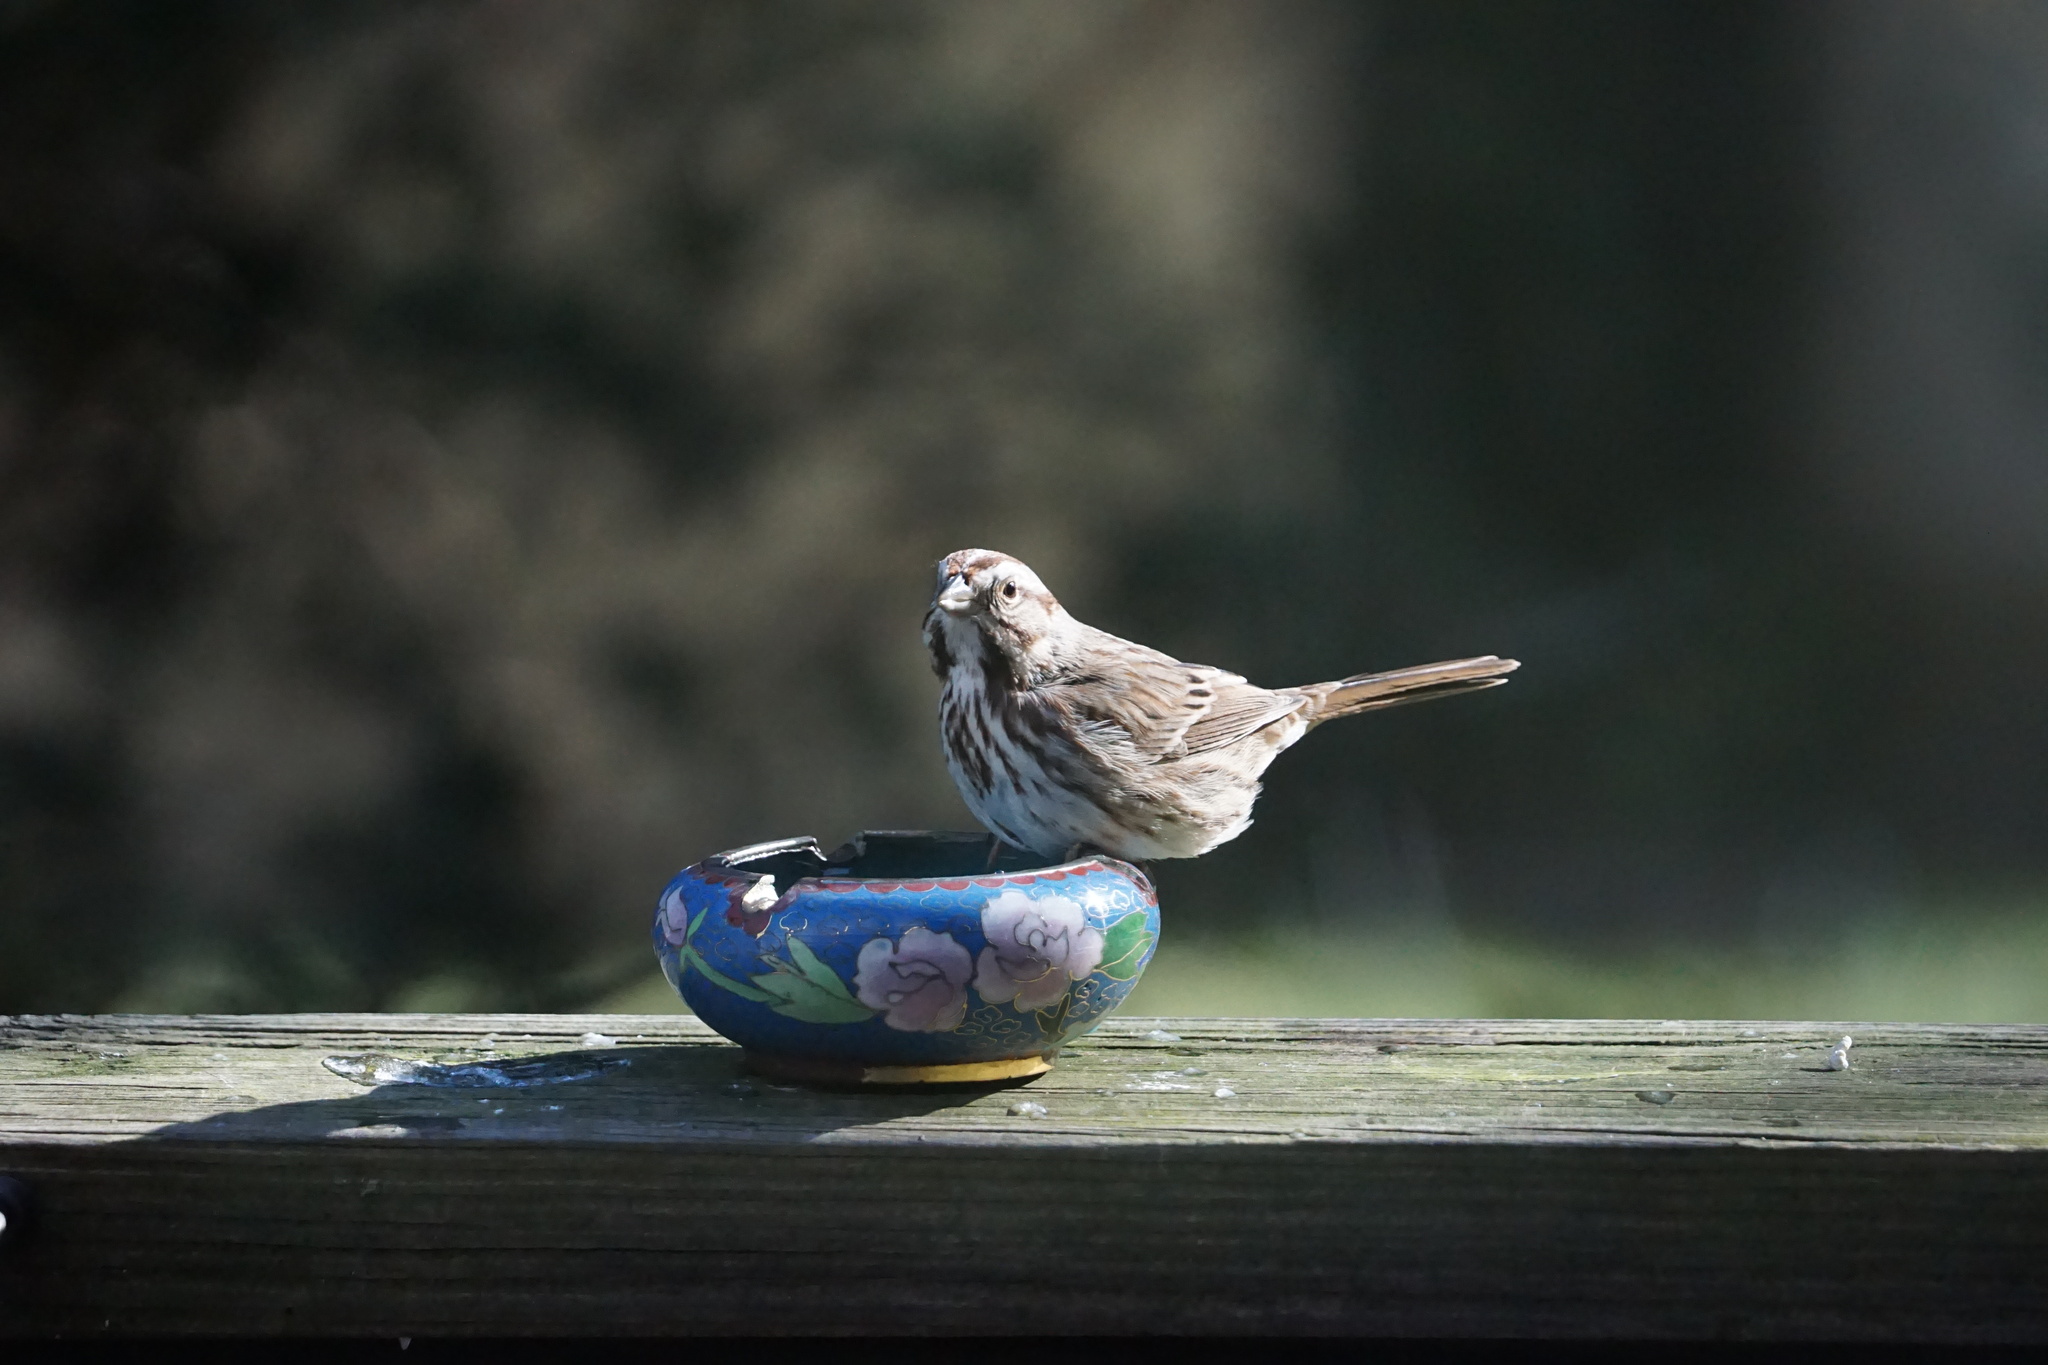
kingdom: Animalia
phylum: Chordata
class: Aves
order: Passeriformes
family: Passerellidae
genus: Melospiza
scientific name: Melospiza melodia
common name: Song sparrow
